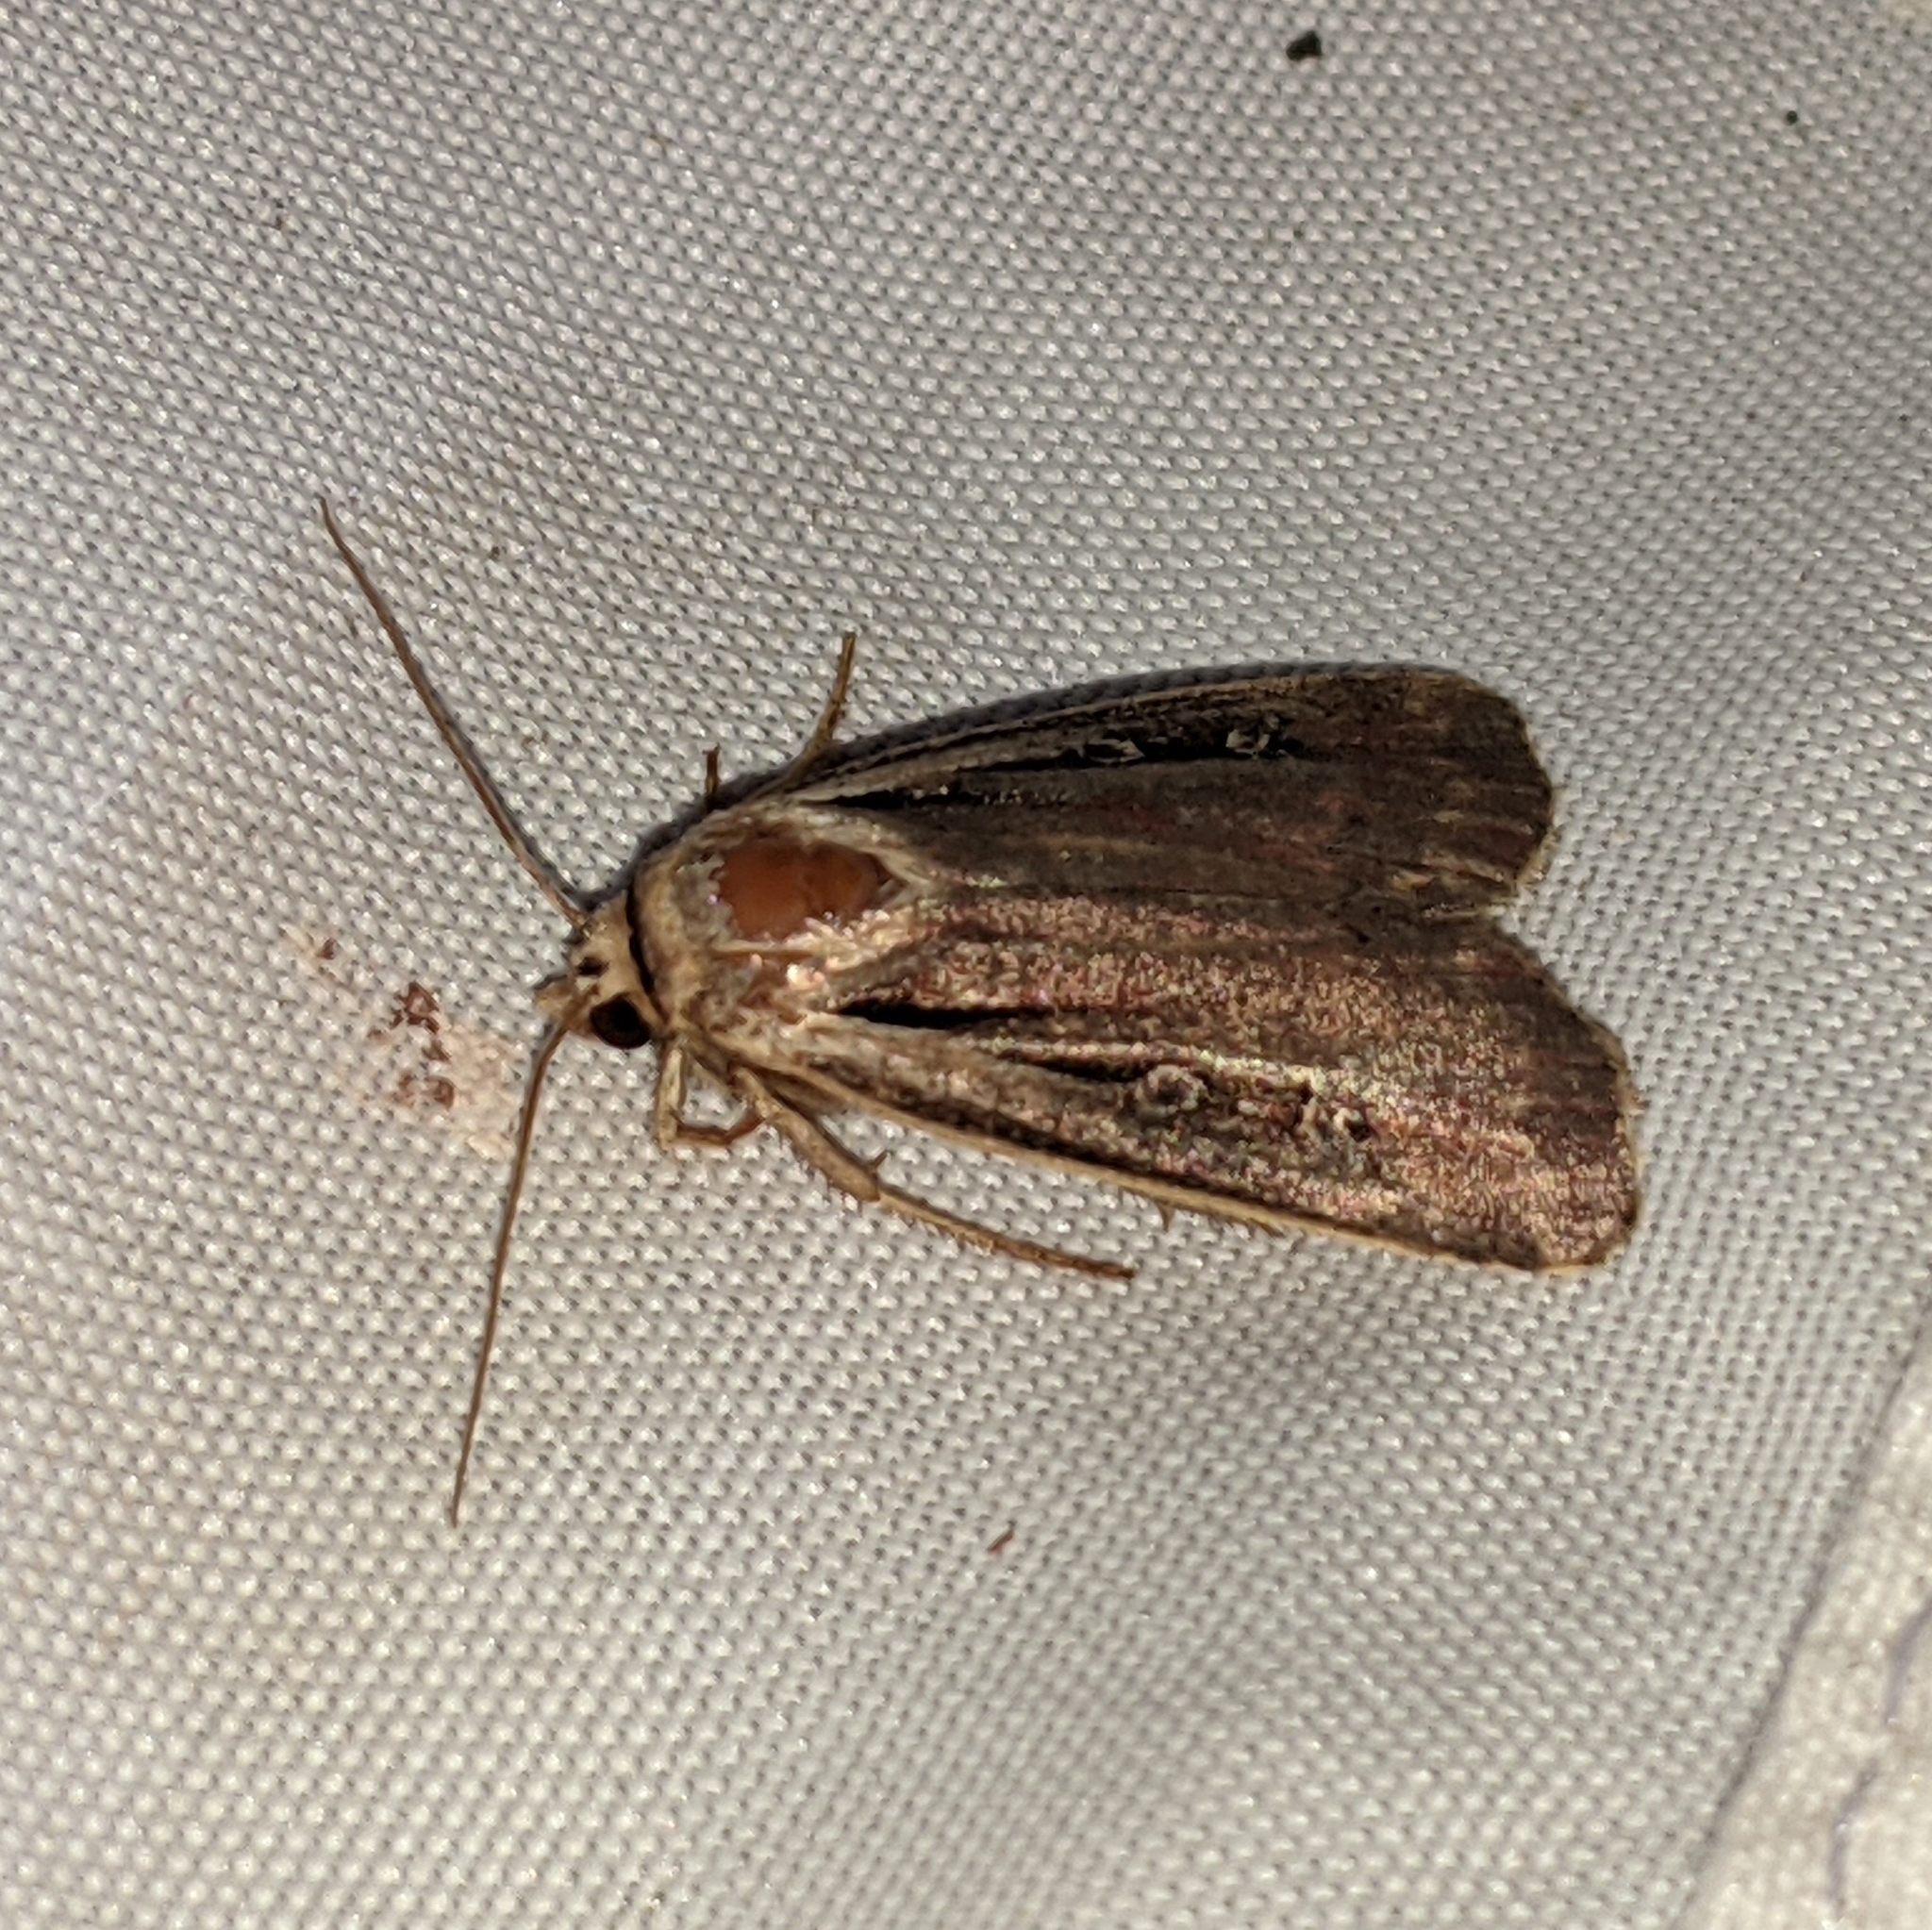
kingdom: Animalia
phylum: Arthropoda
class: Insecta
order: Lepidoptera
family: Noctuidae
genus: Ochropleura
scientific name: Ochropleura implecta
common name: Flame-shouldered dart
